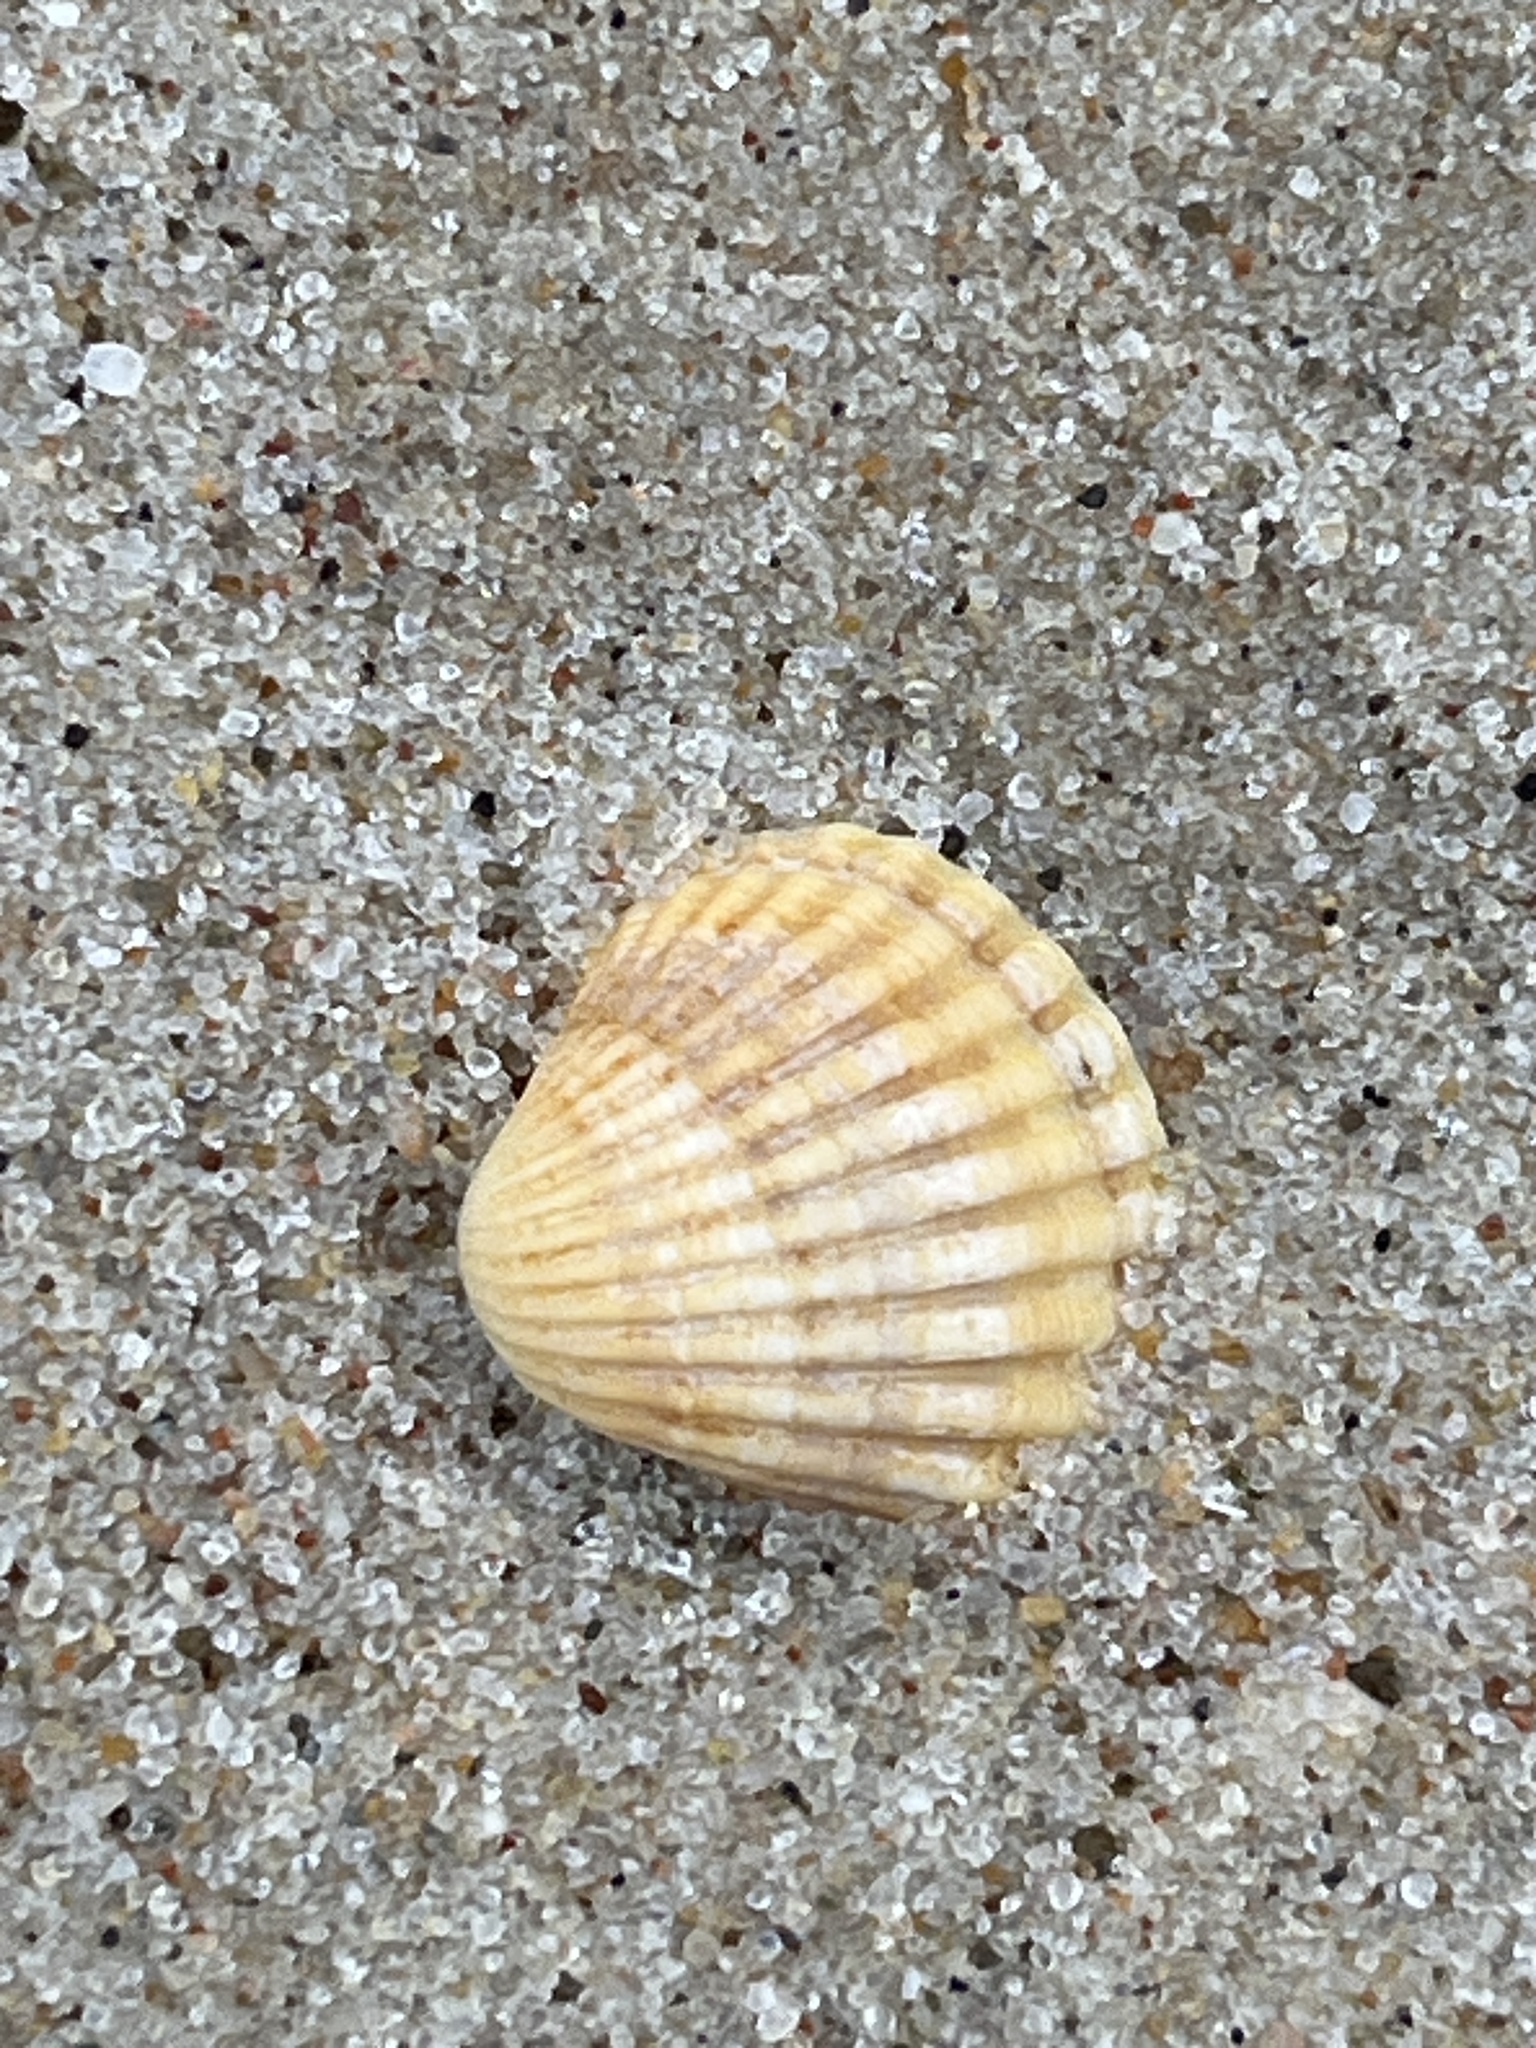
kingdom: Animalia
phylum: Mollusca
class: Bivalvia
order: Cardiida
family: Cardiidae
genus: Cerastoderma
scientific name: Cerastoderma glaucum
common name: Lagoon cockle
